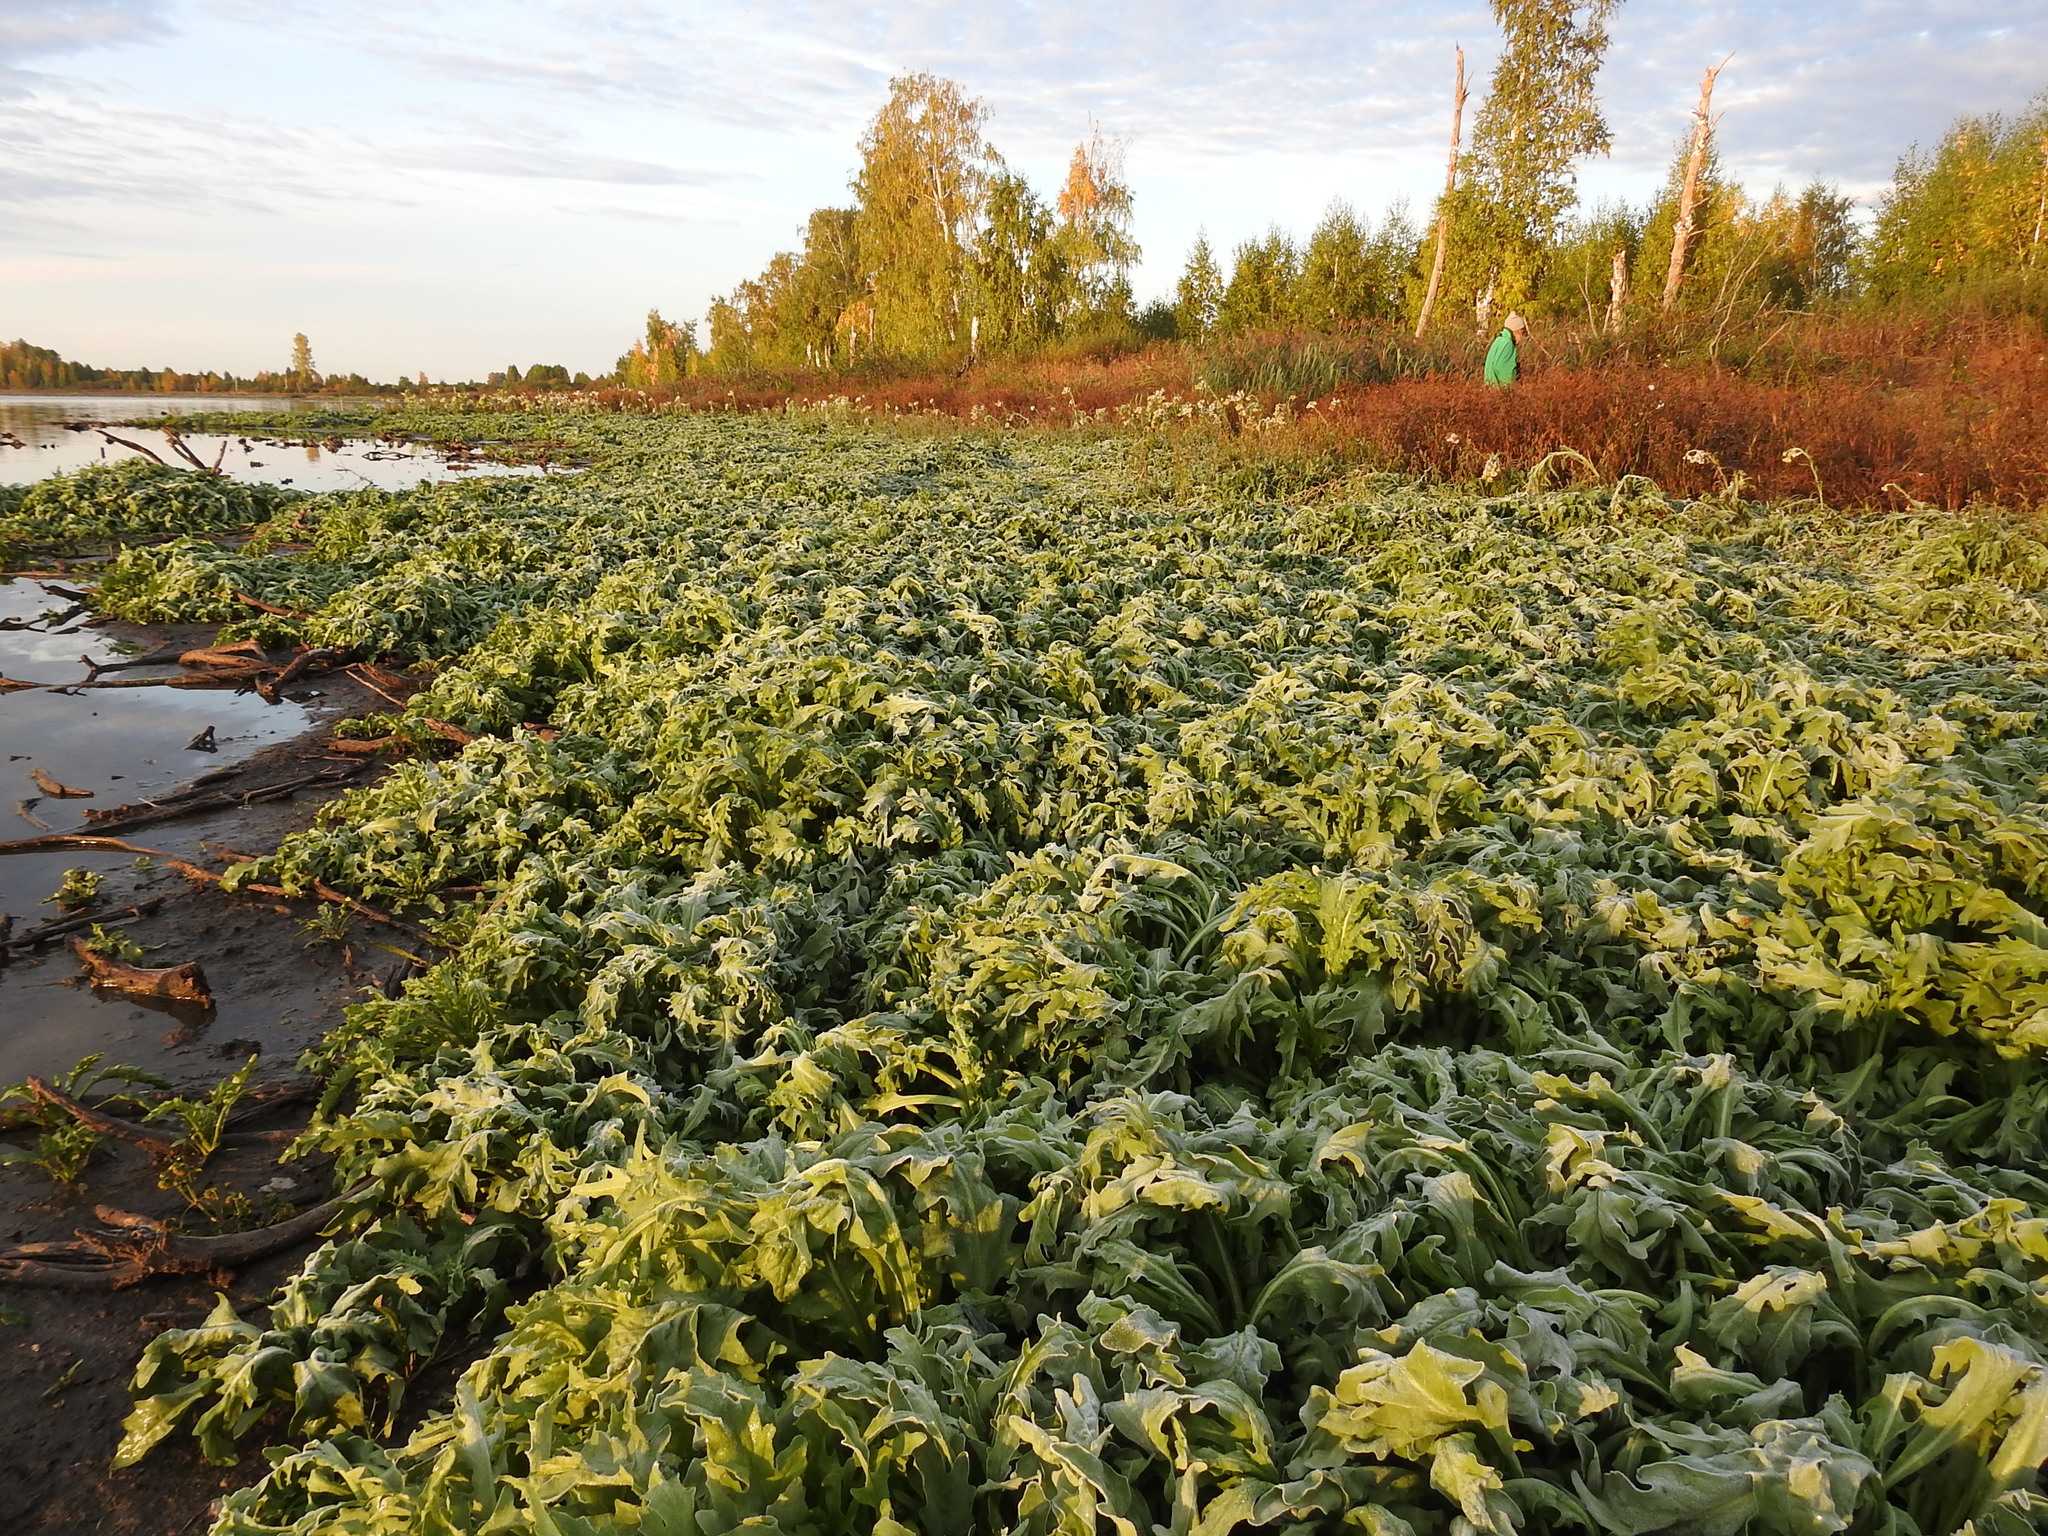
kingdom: Plantae
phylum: Tracheophyta
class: Magnoliopsida
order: Asterales
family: Asteraceae
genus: Tephroseris
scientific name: Tephroseris palustris
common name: Marsh fleawort
